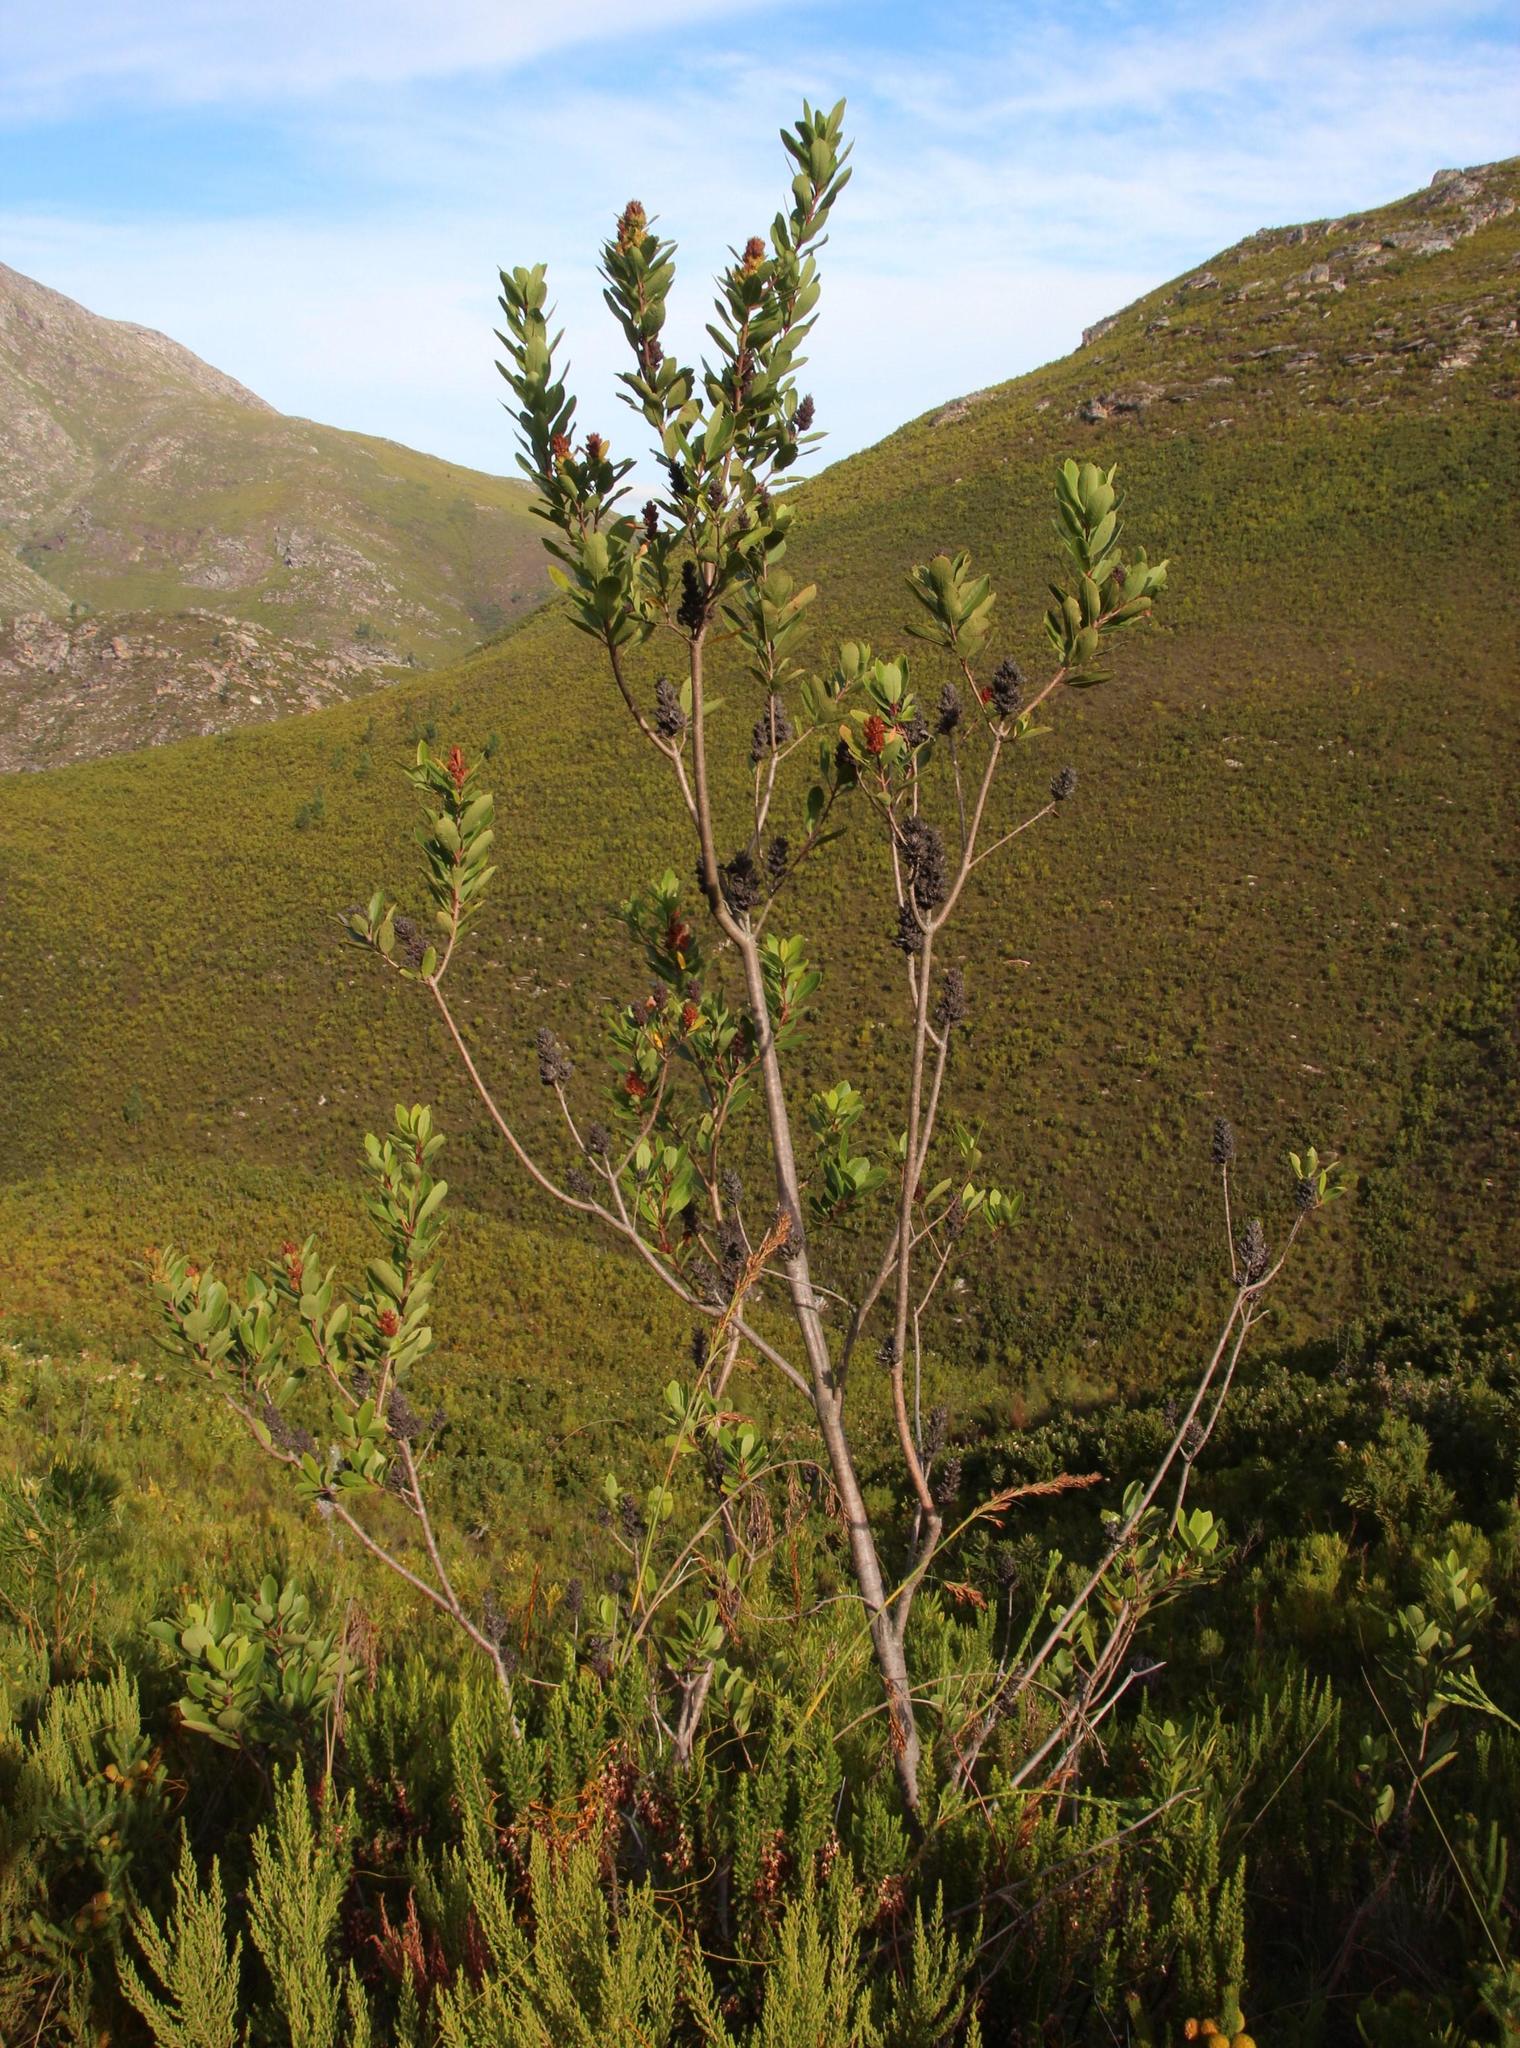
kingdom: Plantae
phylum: Tracheophyta
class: Magnoliopsida
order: Sapindales
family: Anacardiaceae
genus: Laurophyllus
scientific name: Laurophyllus capensis
